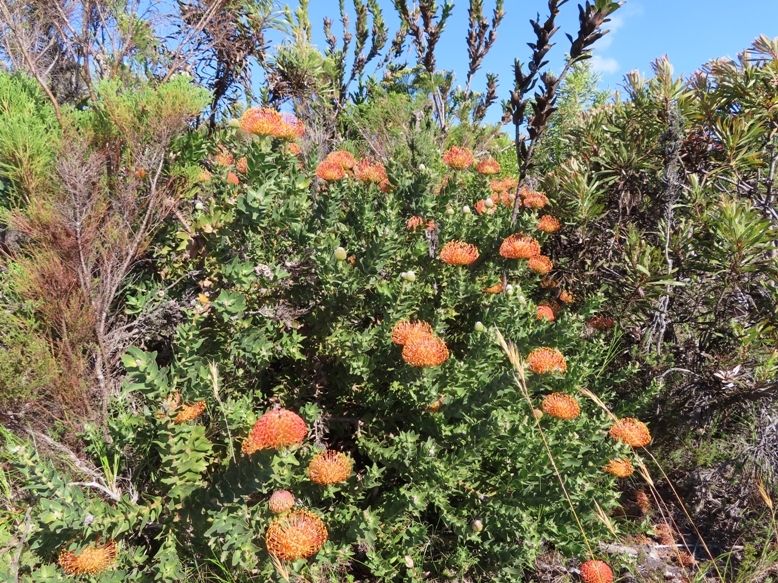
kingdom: Plantae
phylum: Tracheophyta
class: Magnoliopsida
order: Proteales
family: Proteaceae
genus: Leucospermum
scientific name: Leucospermum patersonii
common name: False tree pincushion
